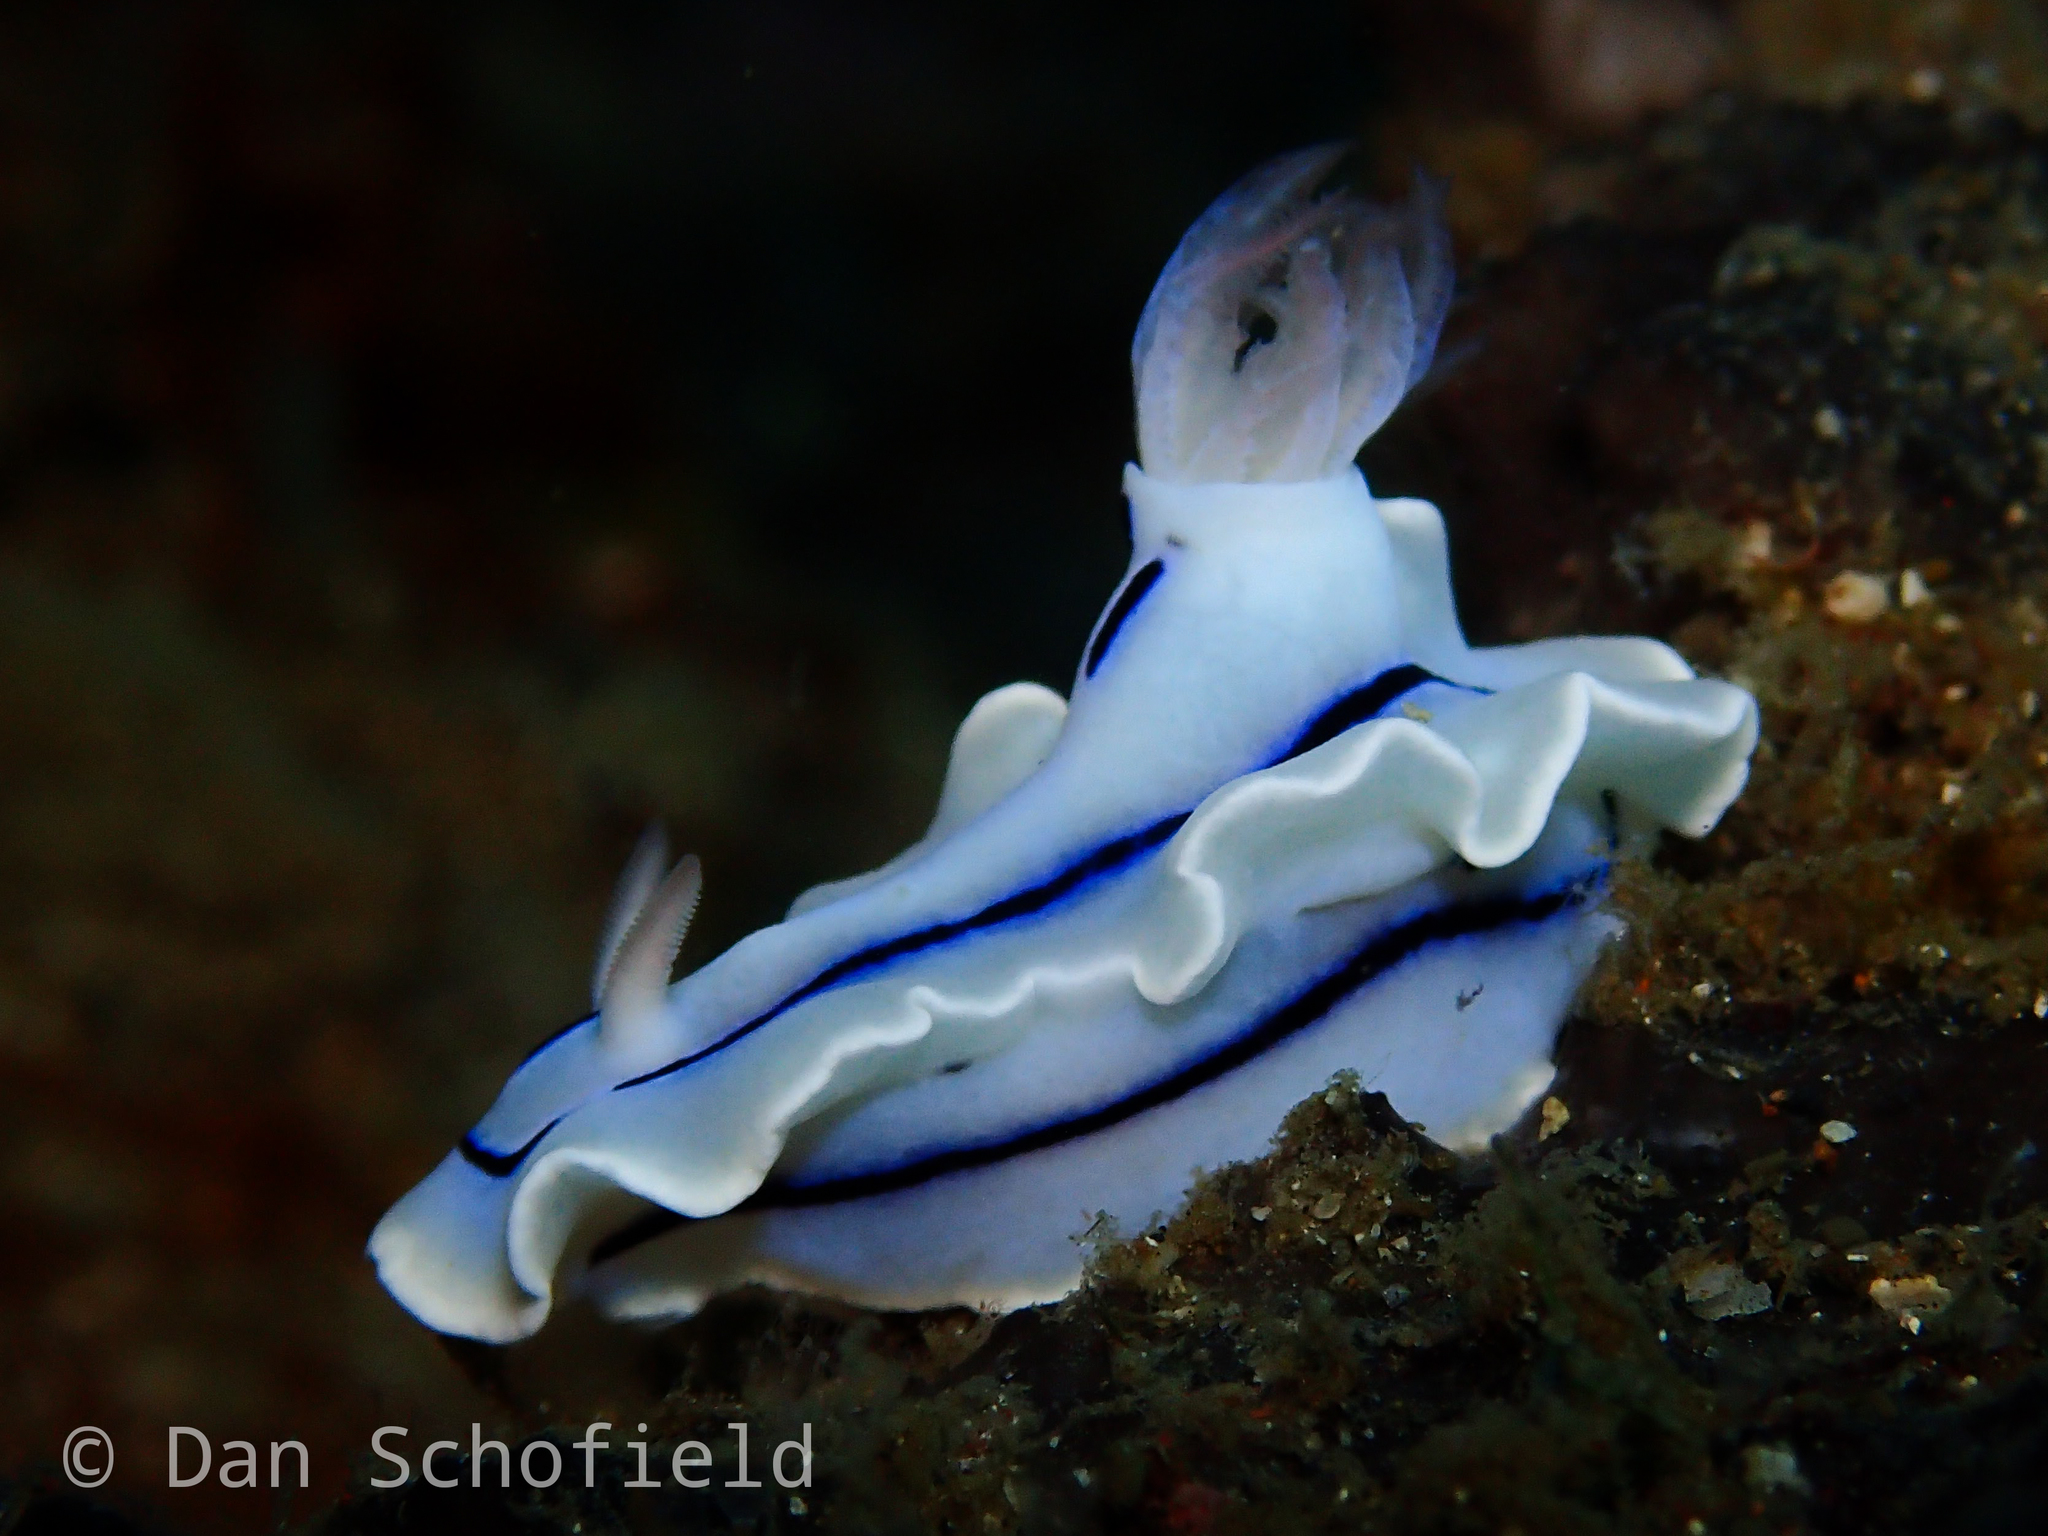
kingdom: Animalia
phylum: Mollusca
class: Gastropoda
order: Nudibranchia
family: Chromodorididae
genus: Chromodoris
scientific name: Chromodoris lochi
